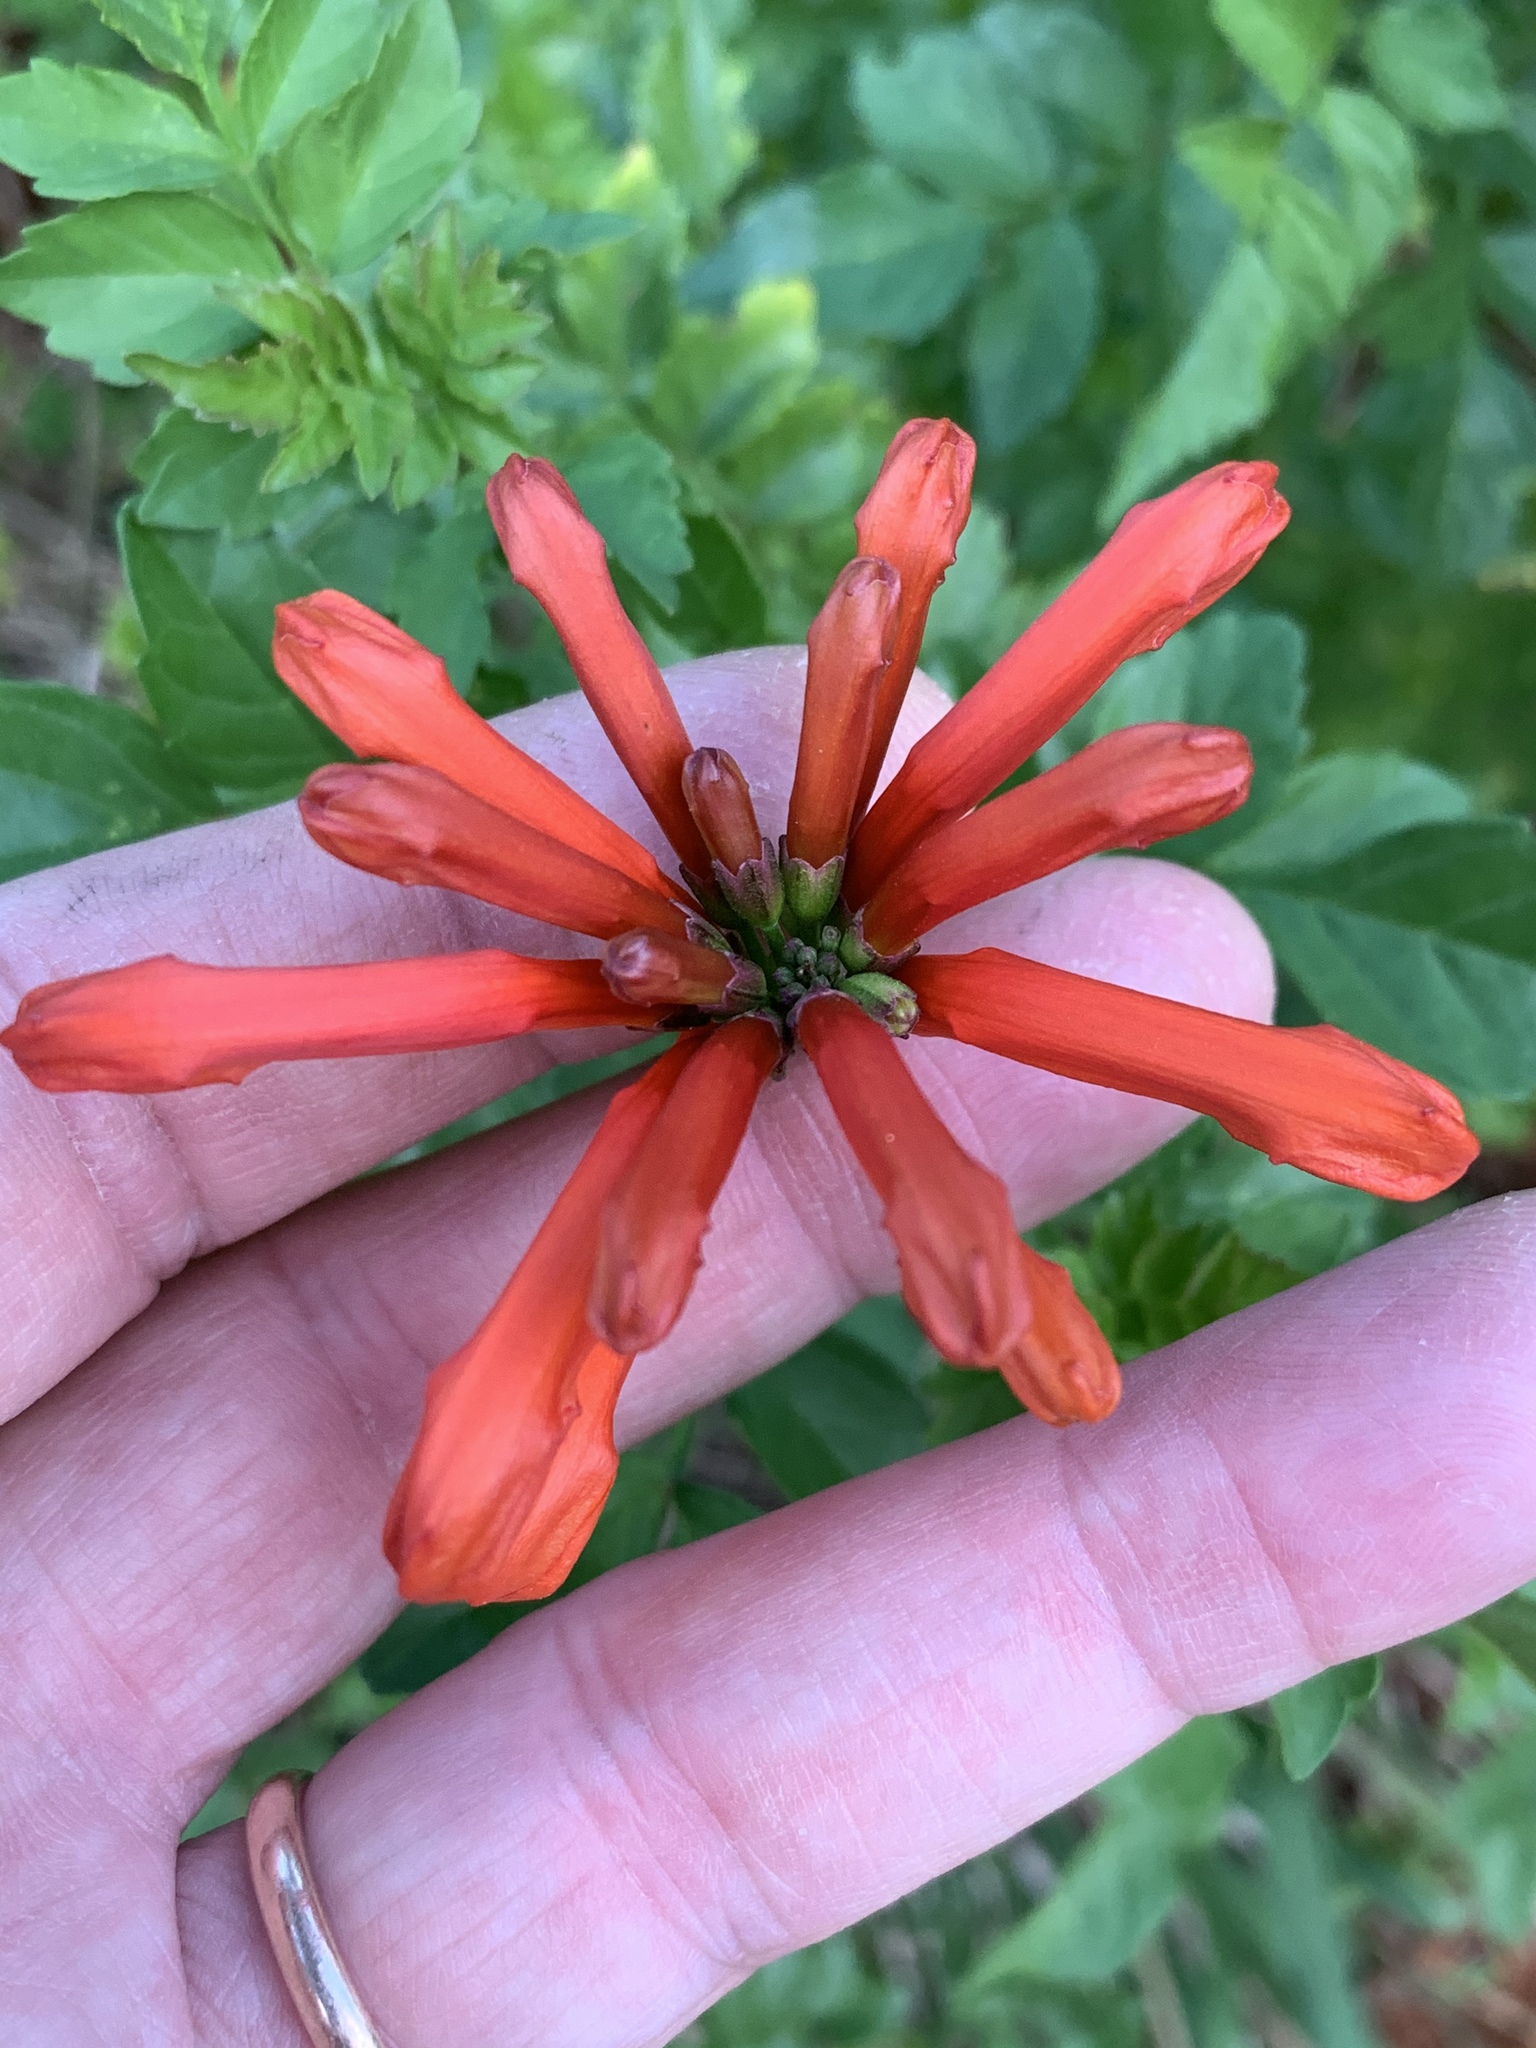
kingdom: Plantae
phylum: Tracheophyta
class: Magnoliopsida
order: Lamiales
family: Bignoniaceae
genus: Tecomaria
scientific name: Tecomaria capensis
